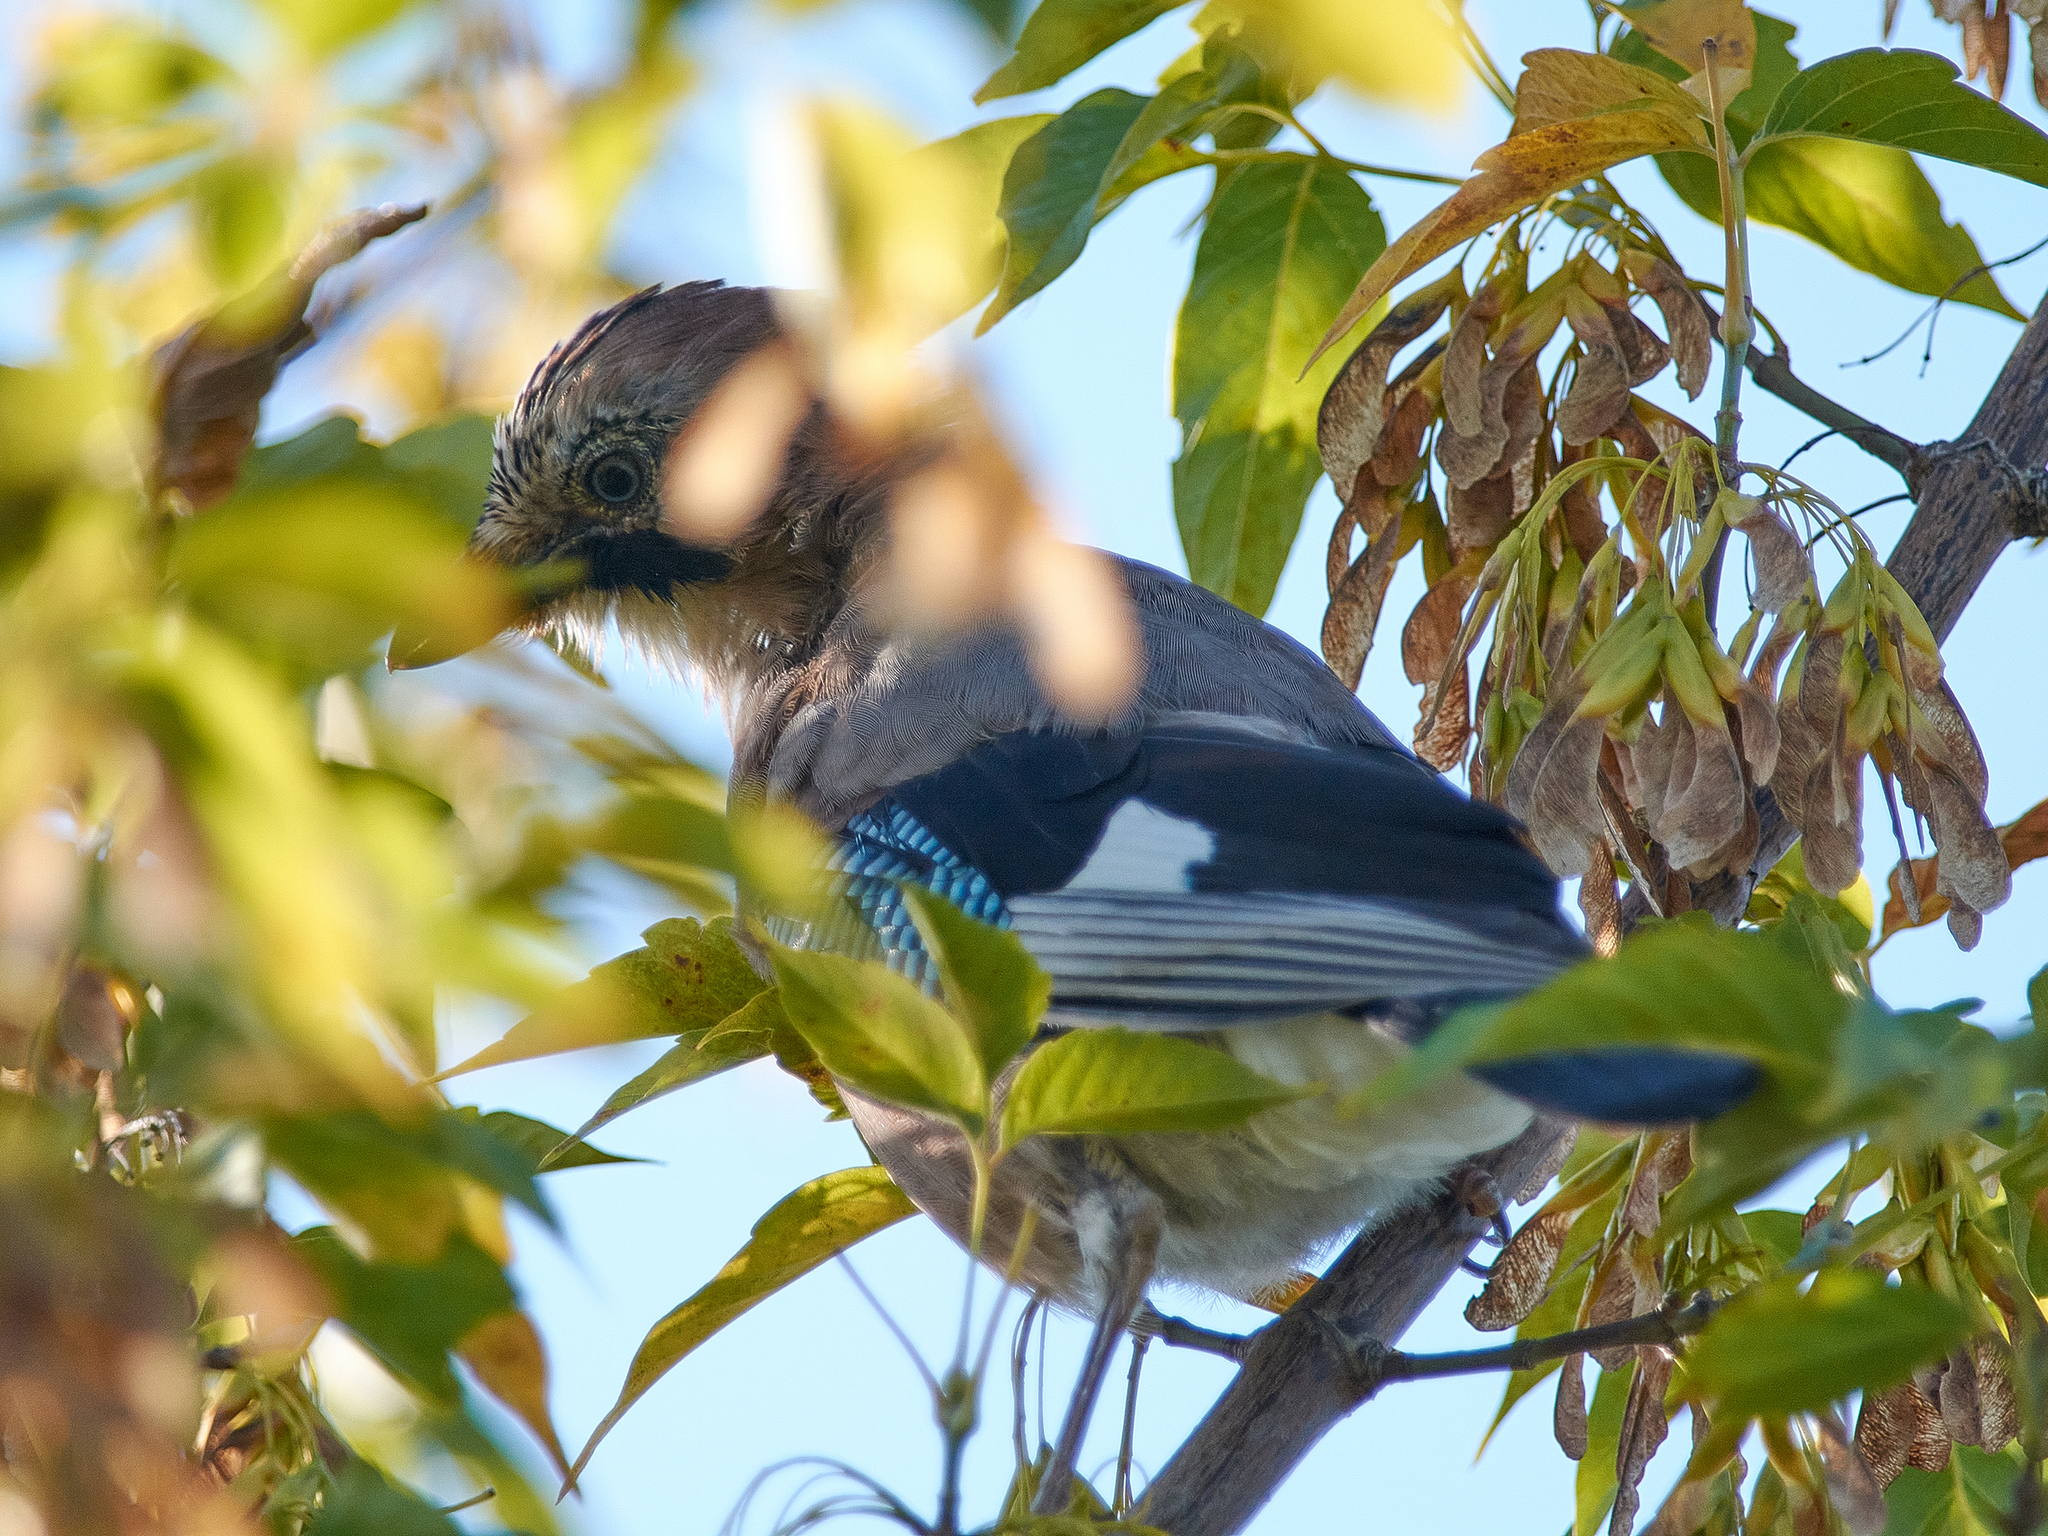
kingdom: Animalia
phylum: Chordata
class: Aves
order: Passeriformes
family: Corvidae
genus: Garrulus
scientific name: Garrulus glandarius
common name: Eurasian jay
